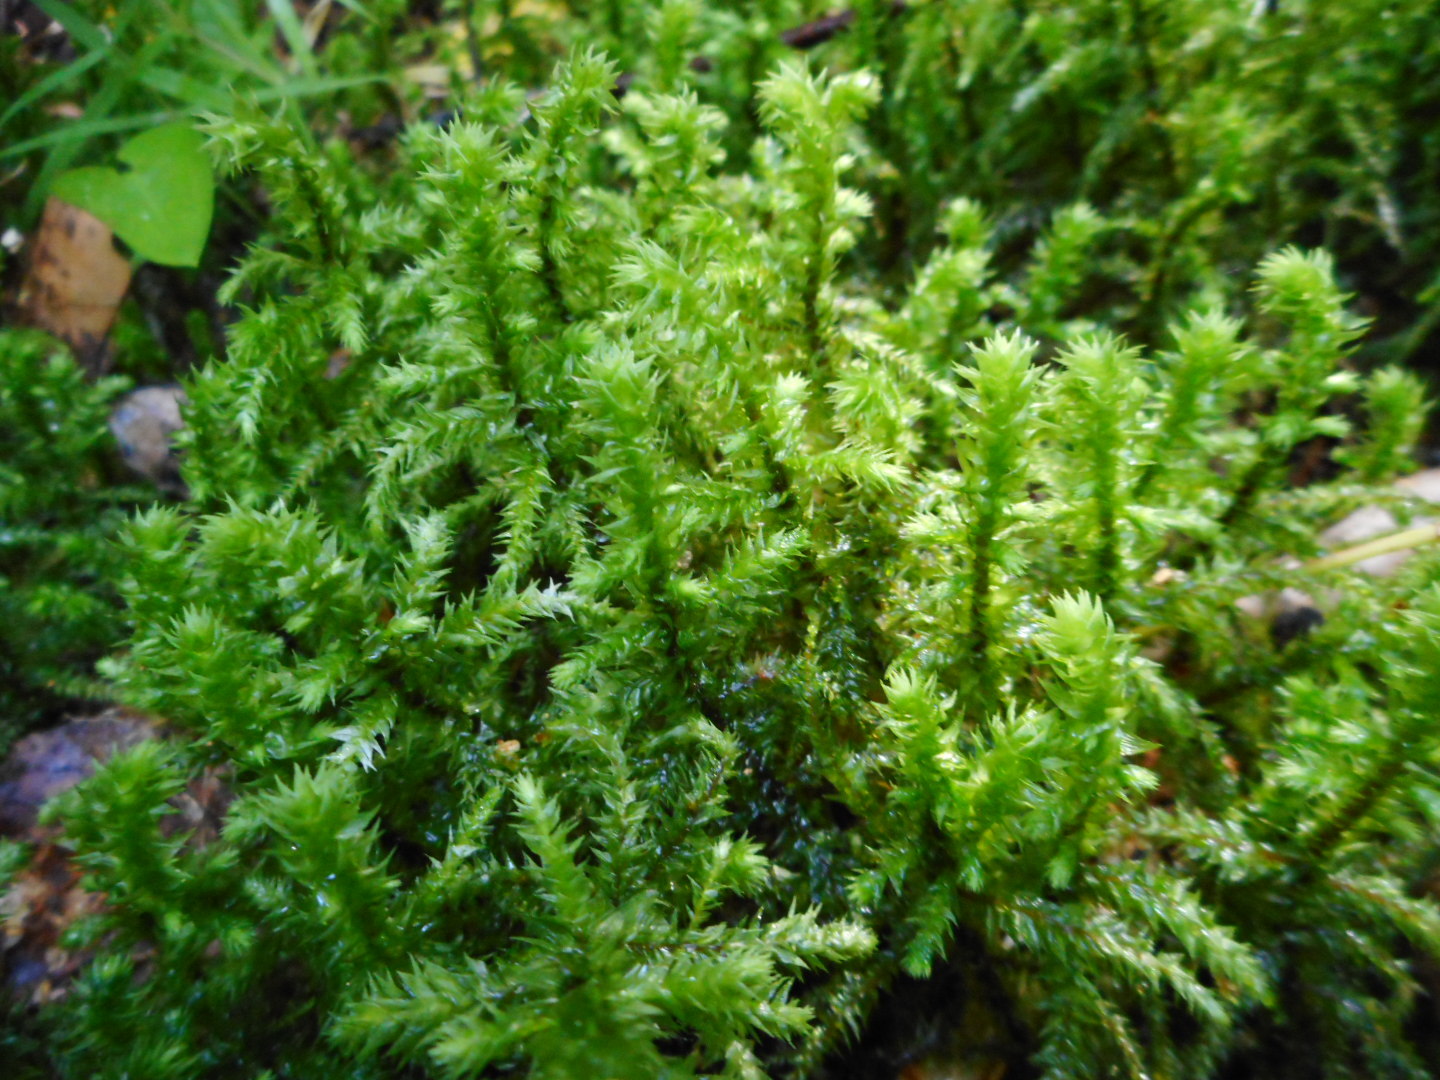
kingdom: Plantae
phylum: Bryophyta
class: Bryopsida
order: Hypnales
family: Hylocomiaceae
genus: Hylocomiadelphus
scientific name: Hylocomiadelphus triquetrus
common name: Rough goose neck moss
